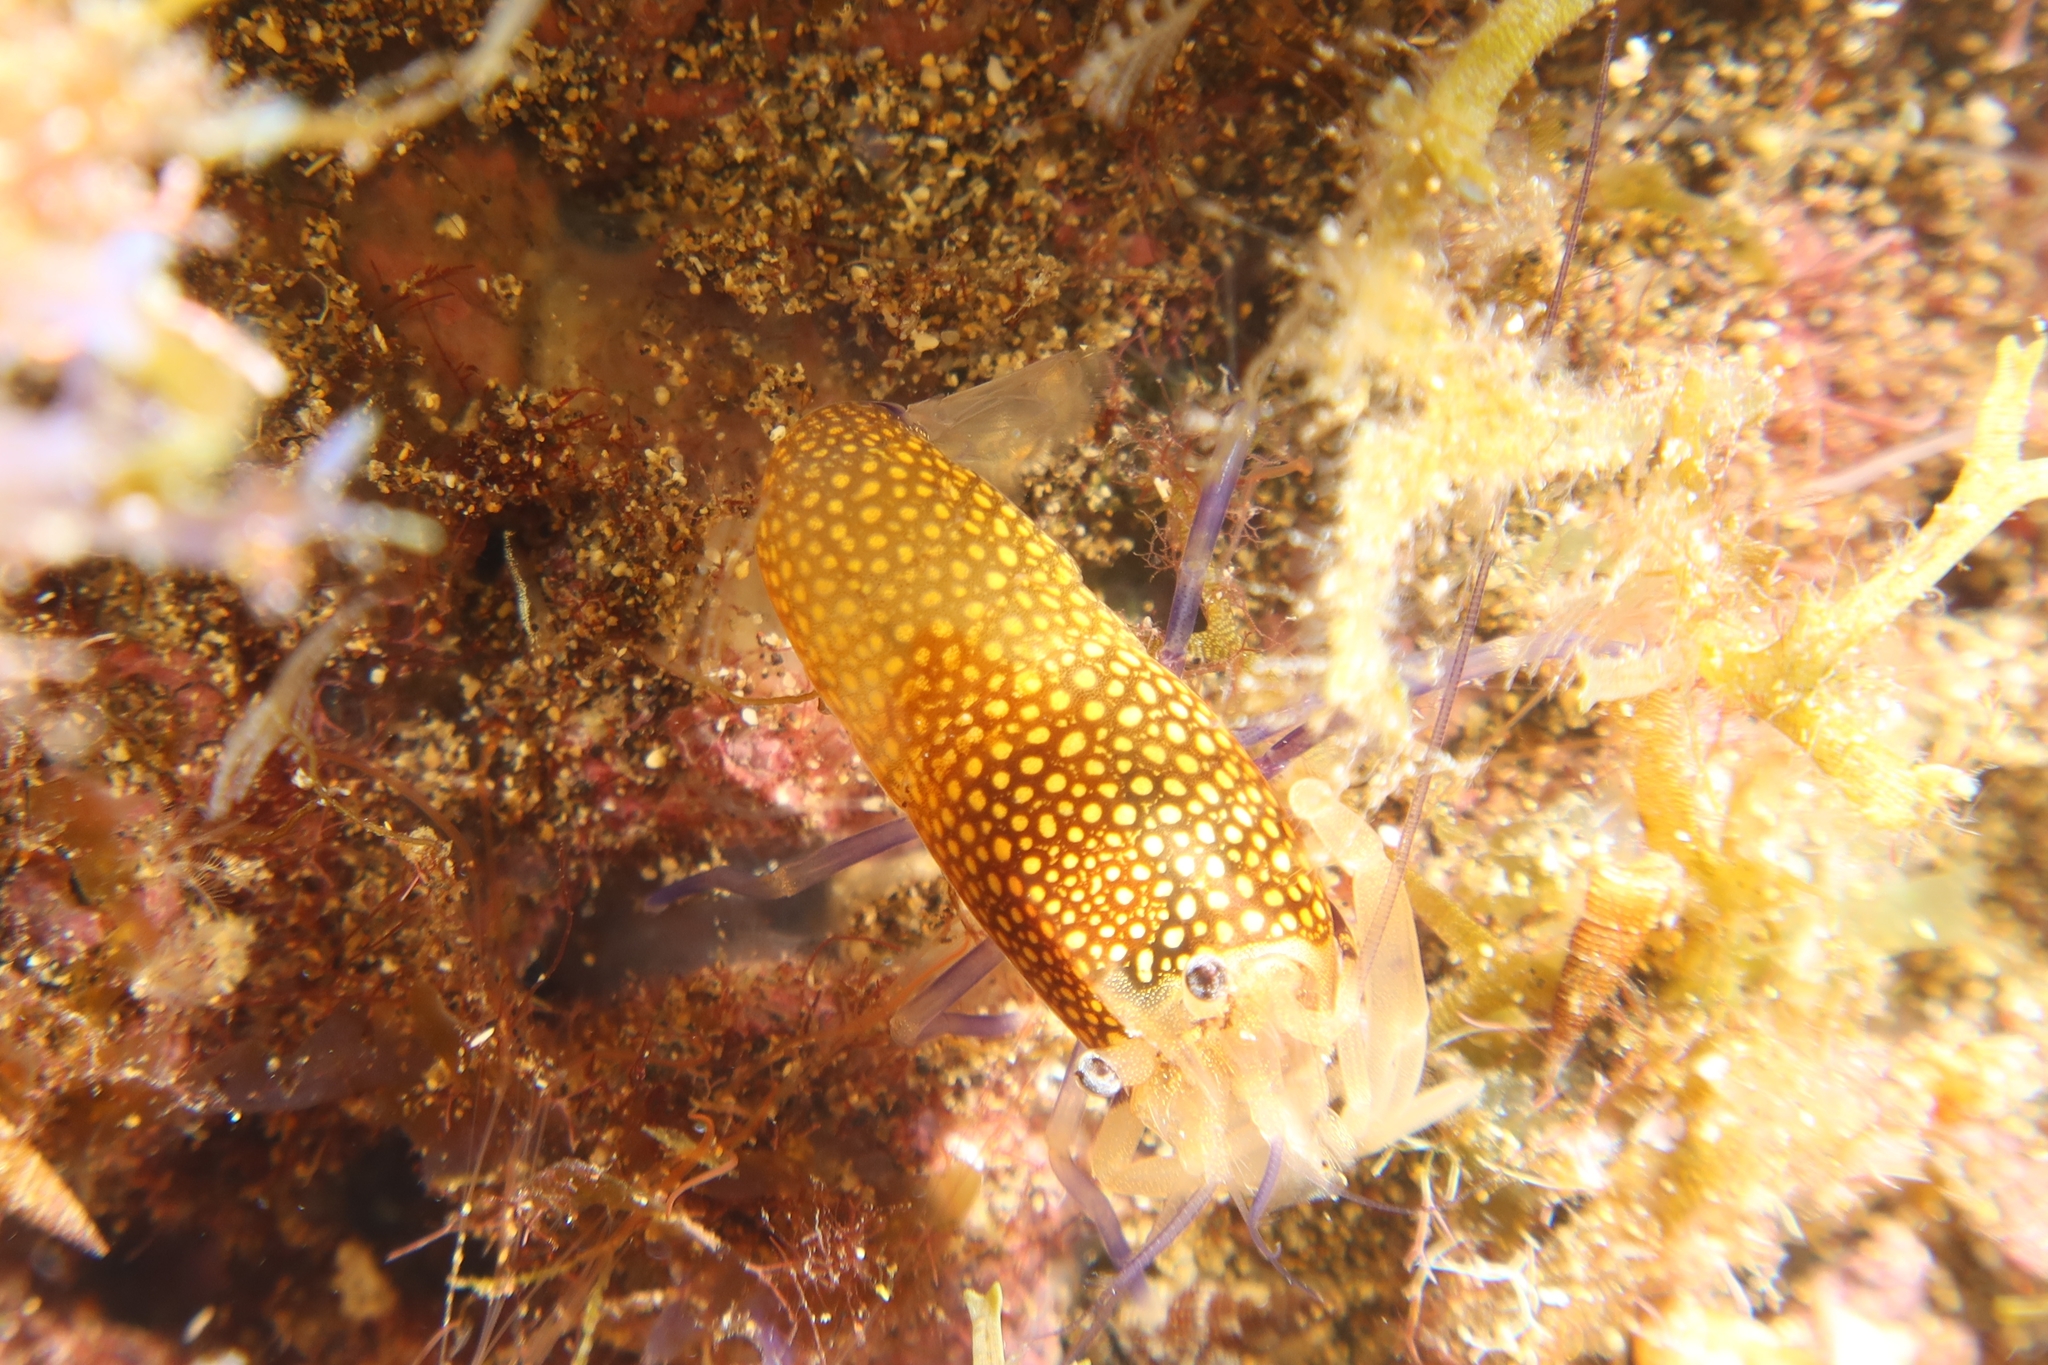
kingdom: Animalia
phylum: Arthropoda
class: Malacostraca
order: Decapoda
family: Palaemonidae
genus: Gnathophyllum
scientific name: Gnathophyllum elegans
